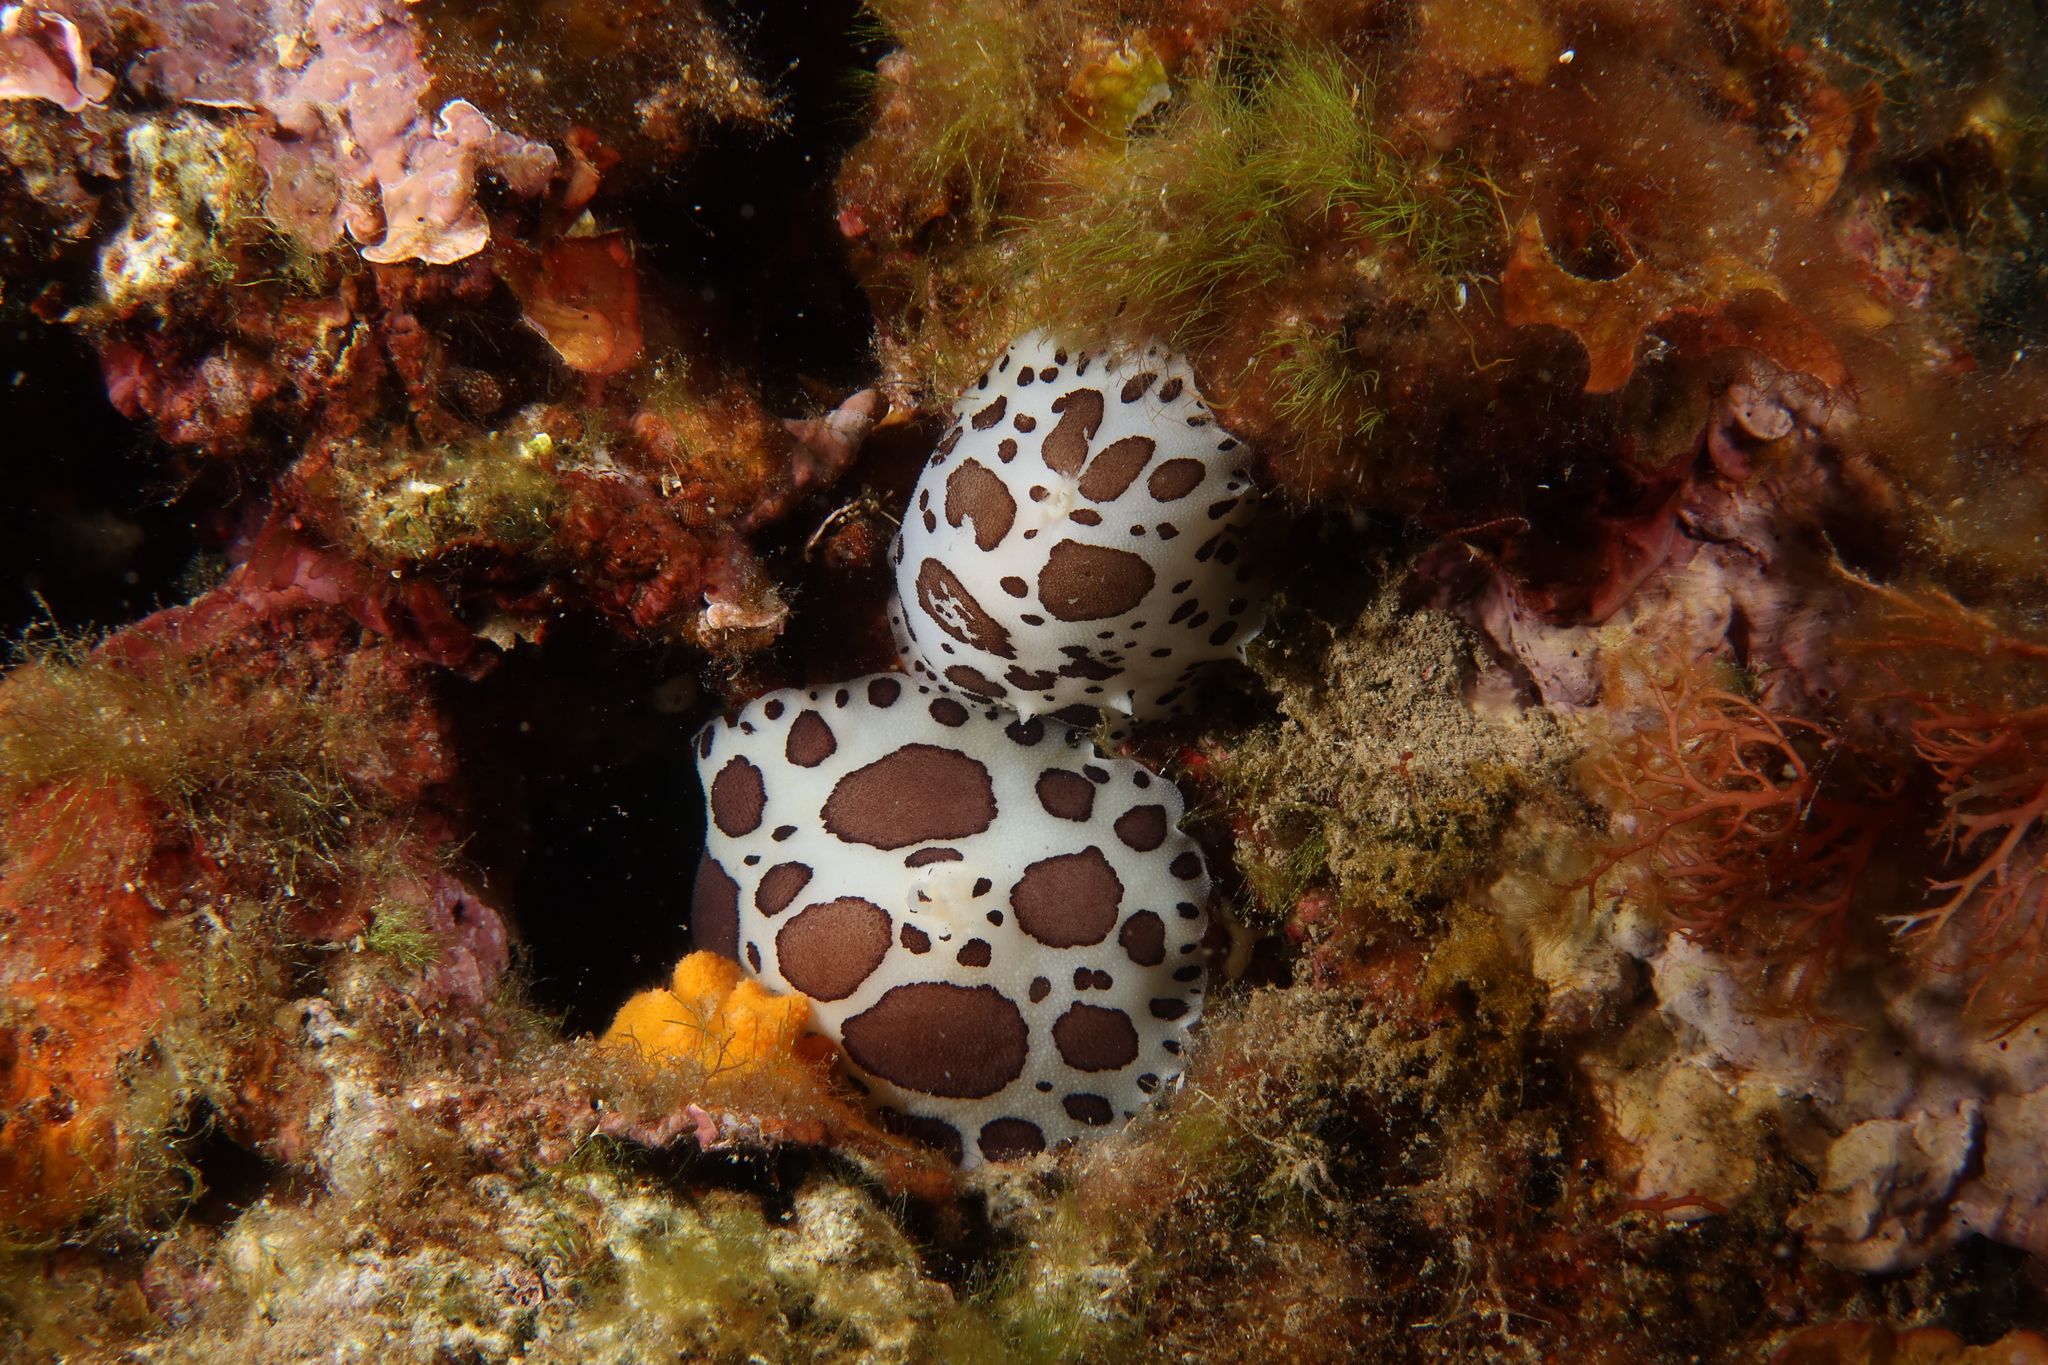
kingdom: Animalia
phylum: Mollusca
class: Gastropoda
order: Nudibranchia
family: Discodorididae
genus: Peltodoris
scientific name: Peltodoris atromaculata
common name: Swiss cow nudibranch
